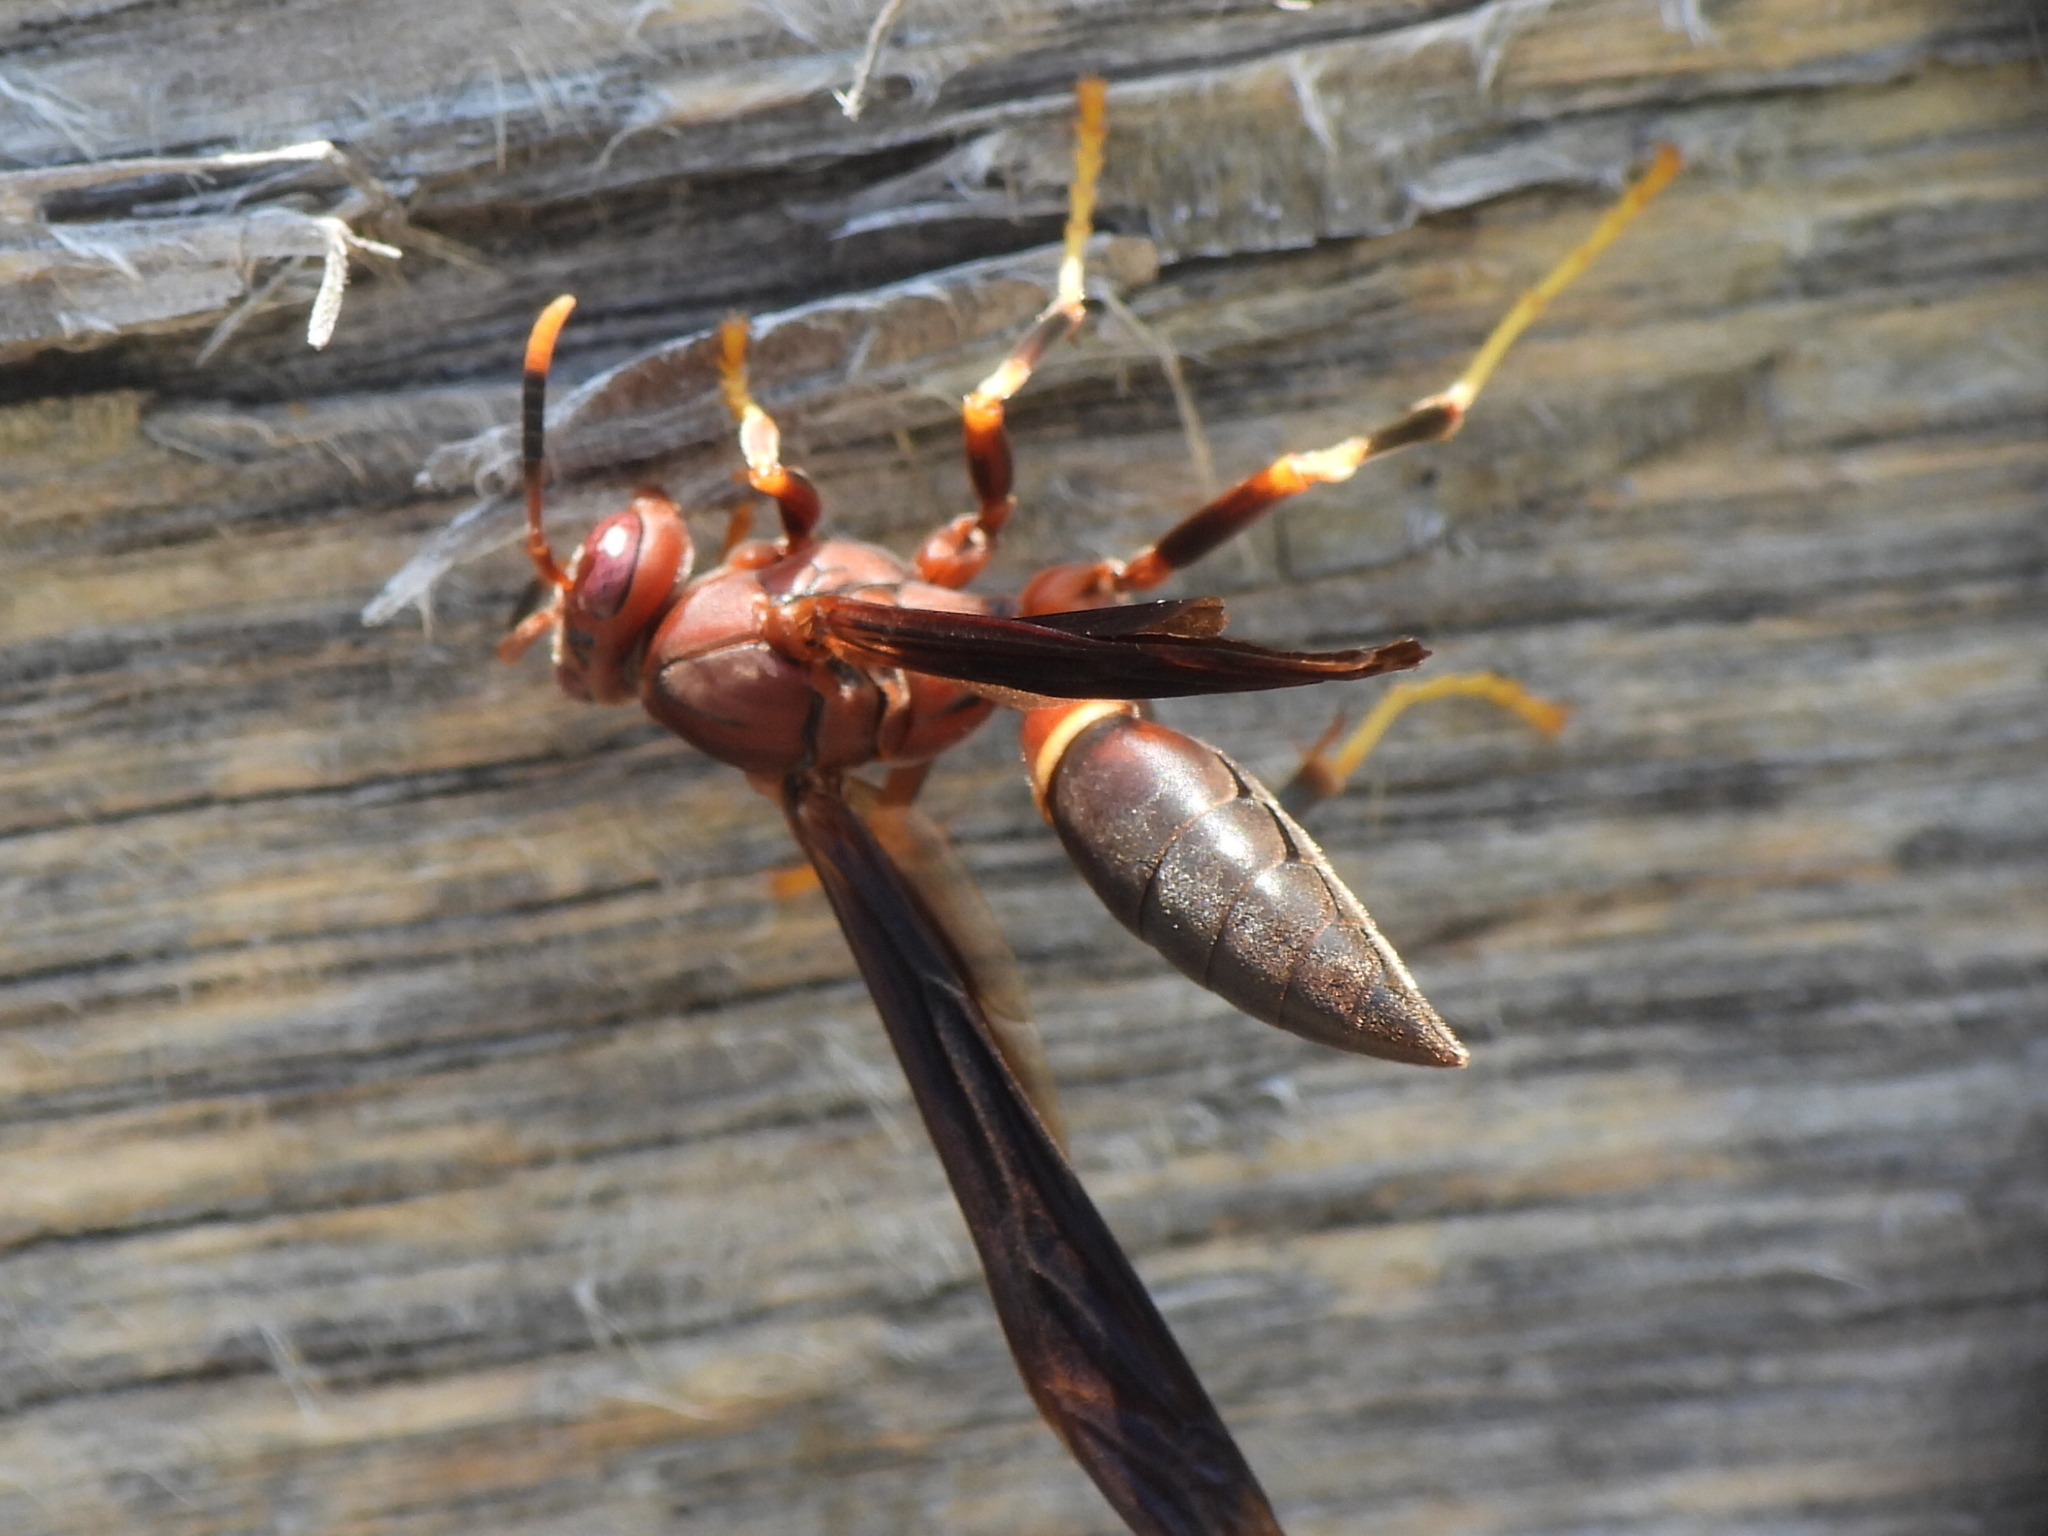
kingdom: Animalia
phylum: Arthropoda
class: Insecta
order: Hymenoptera
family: Eumenidae
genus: Polistes
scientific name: Polistes annularis
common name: Ringed paper wasp
